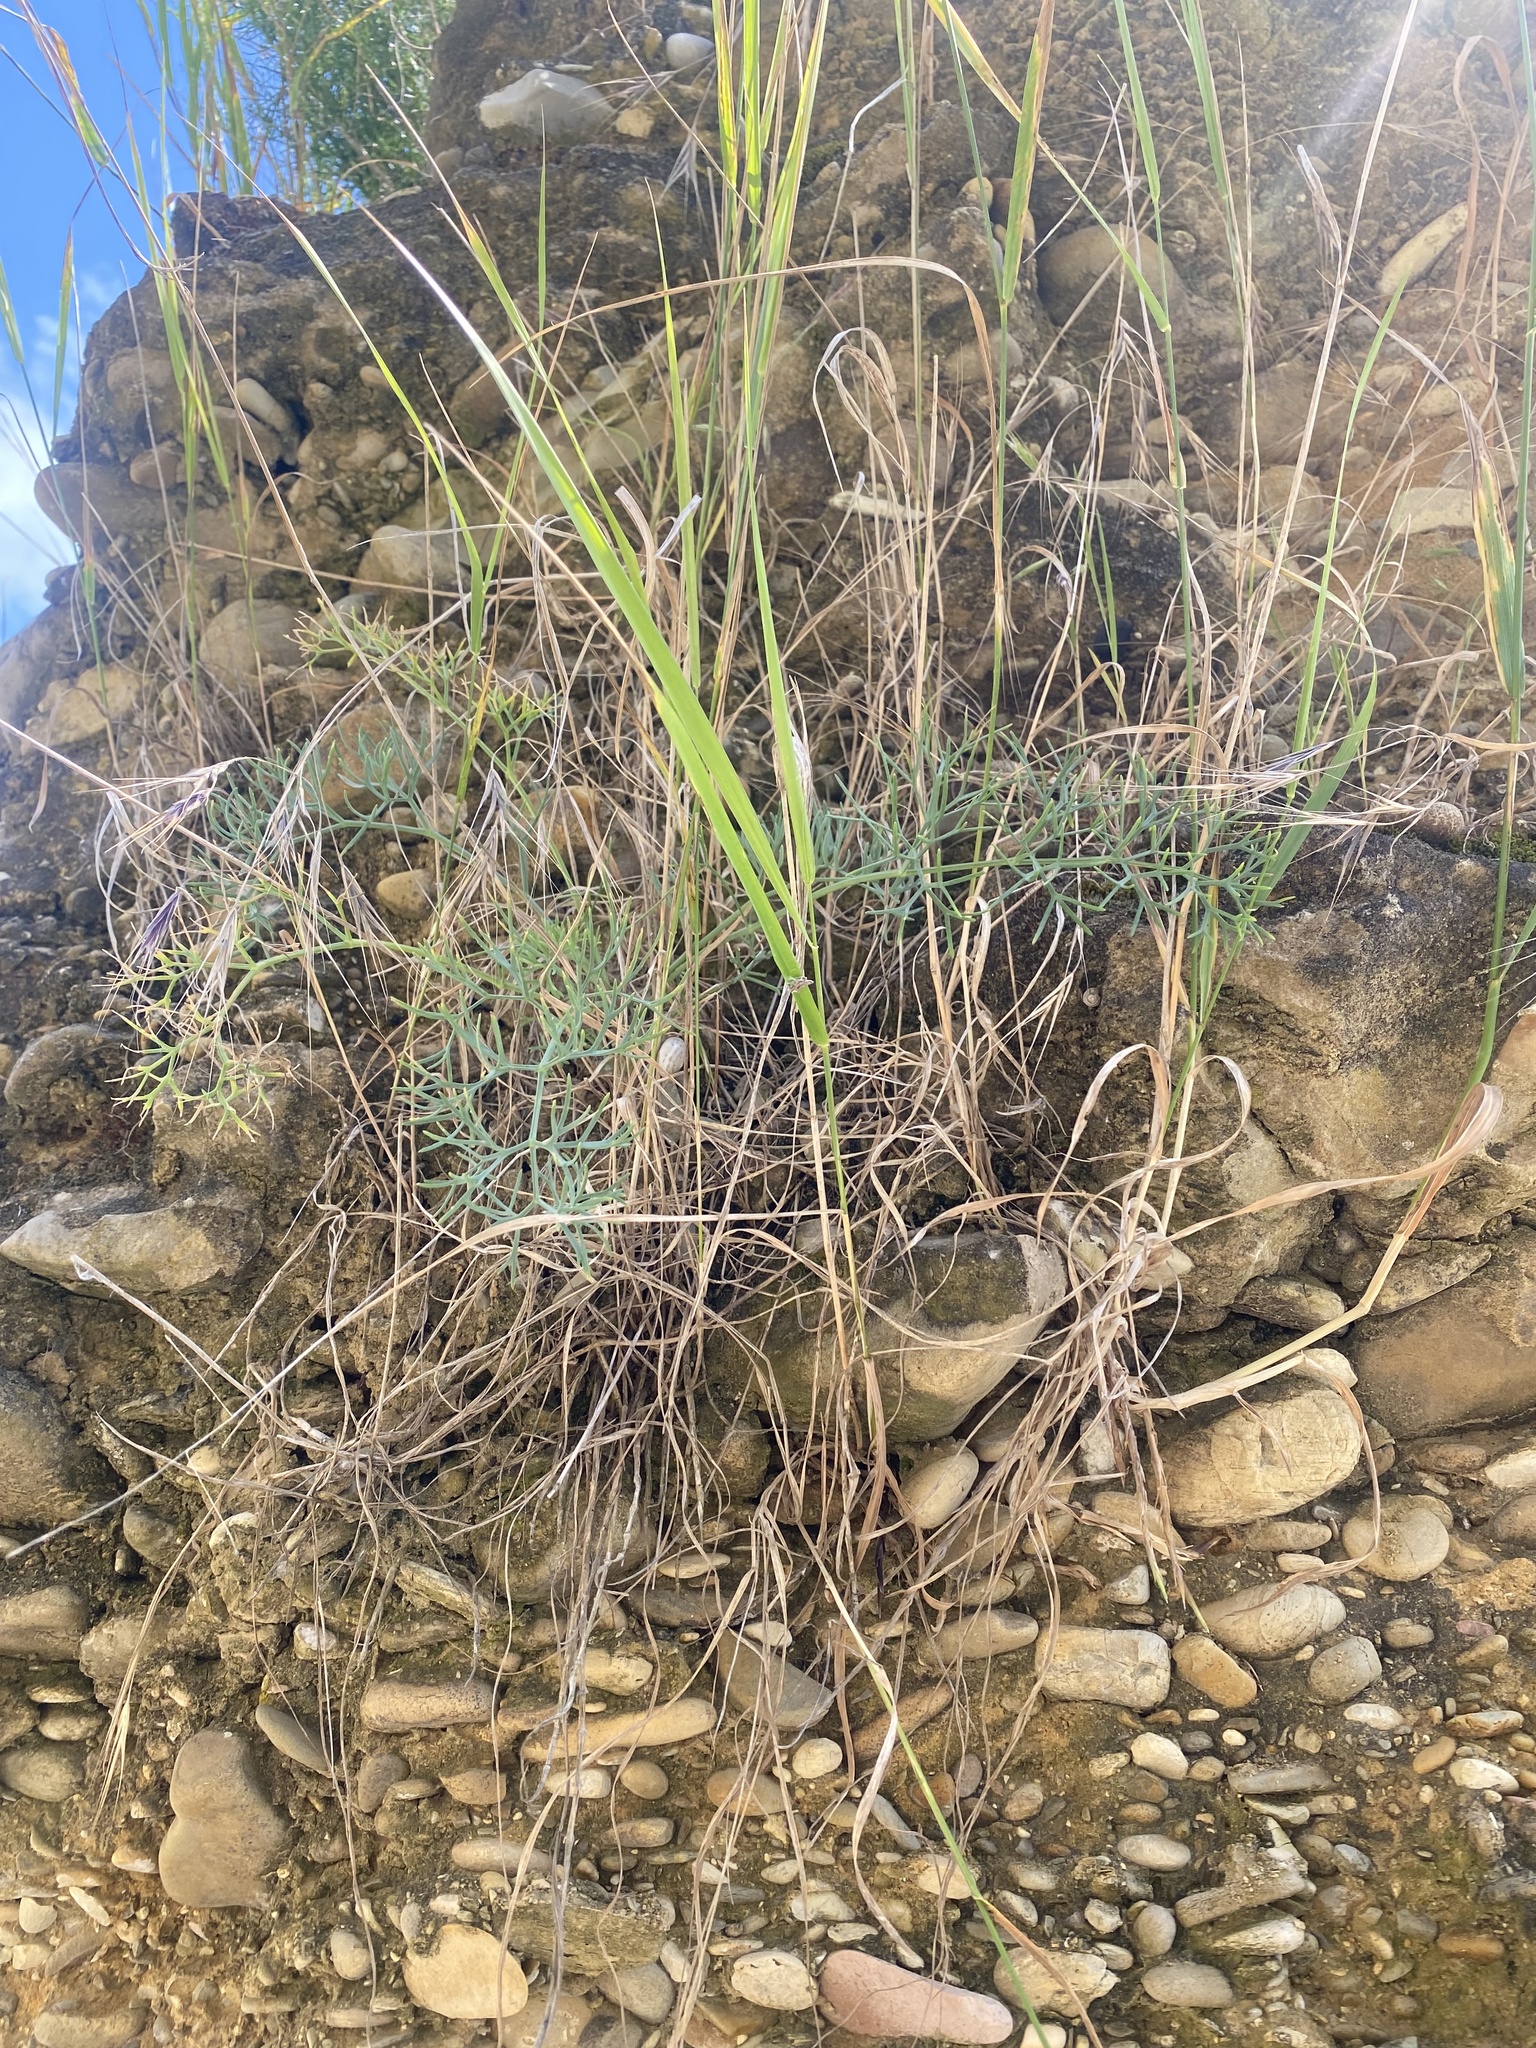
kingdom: Plantae
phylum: Tracheophyta
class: Magnoliopsida
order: Apiales
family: Apiaceae
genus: Seseli
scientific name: Seseli ponticum
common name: Pontic seseli
